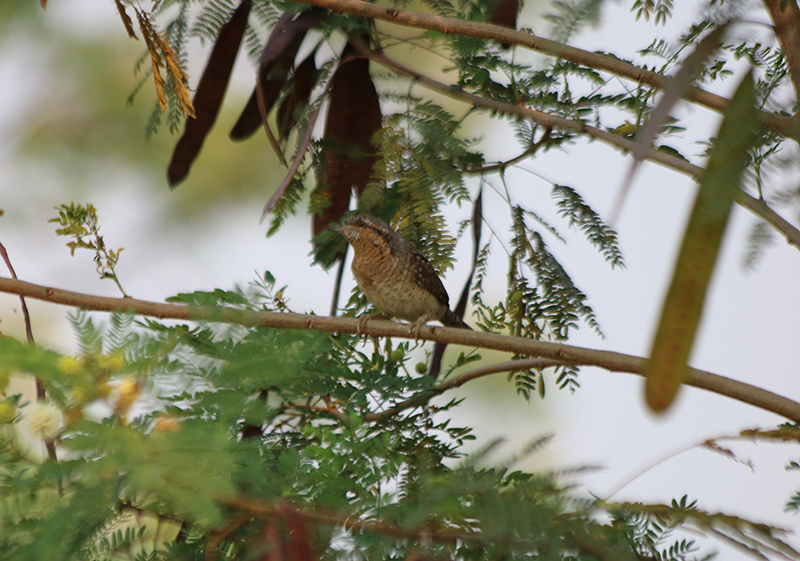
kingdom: Animalia
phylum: Chordata
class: Aves
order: Piciformes
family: Picidae
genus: Jynx
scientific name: Jynx torquilla
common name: Eurasian wryneck
